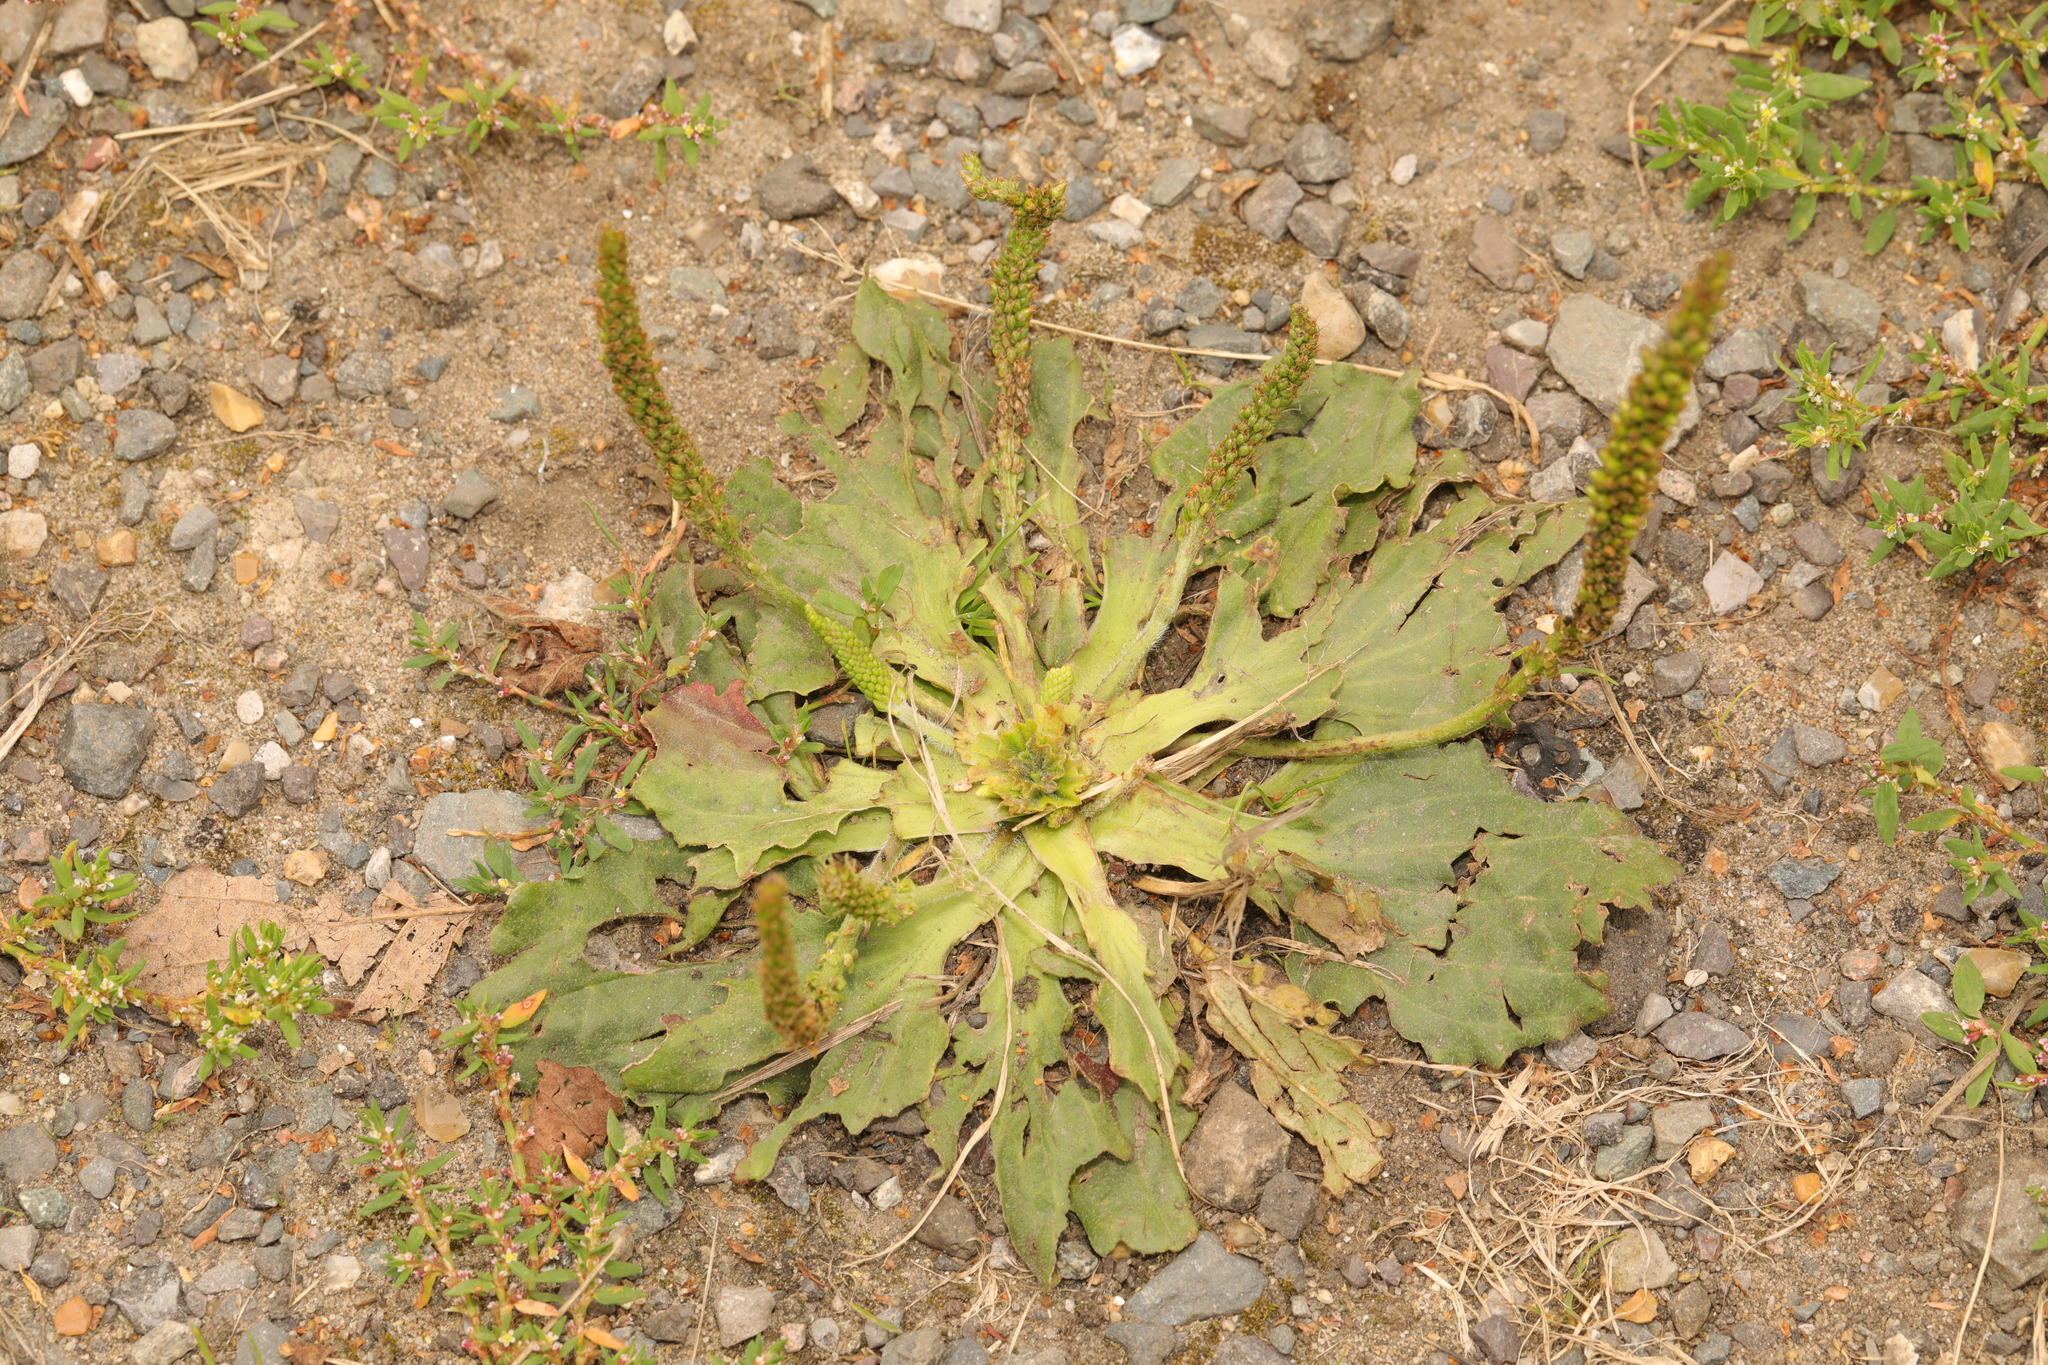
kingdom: Plantae
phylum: Tracheophyta
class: Magnoliopsida
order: Lamiales
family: Plantaginaceae
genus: Plantago
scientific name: Plantago major
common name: Common plantain
